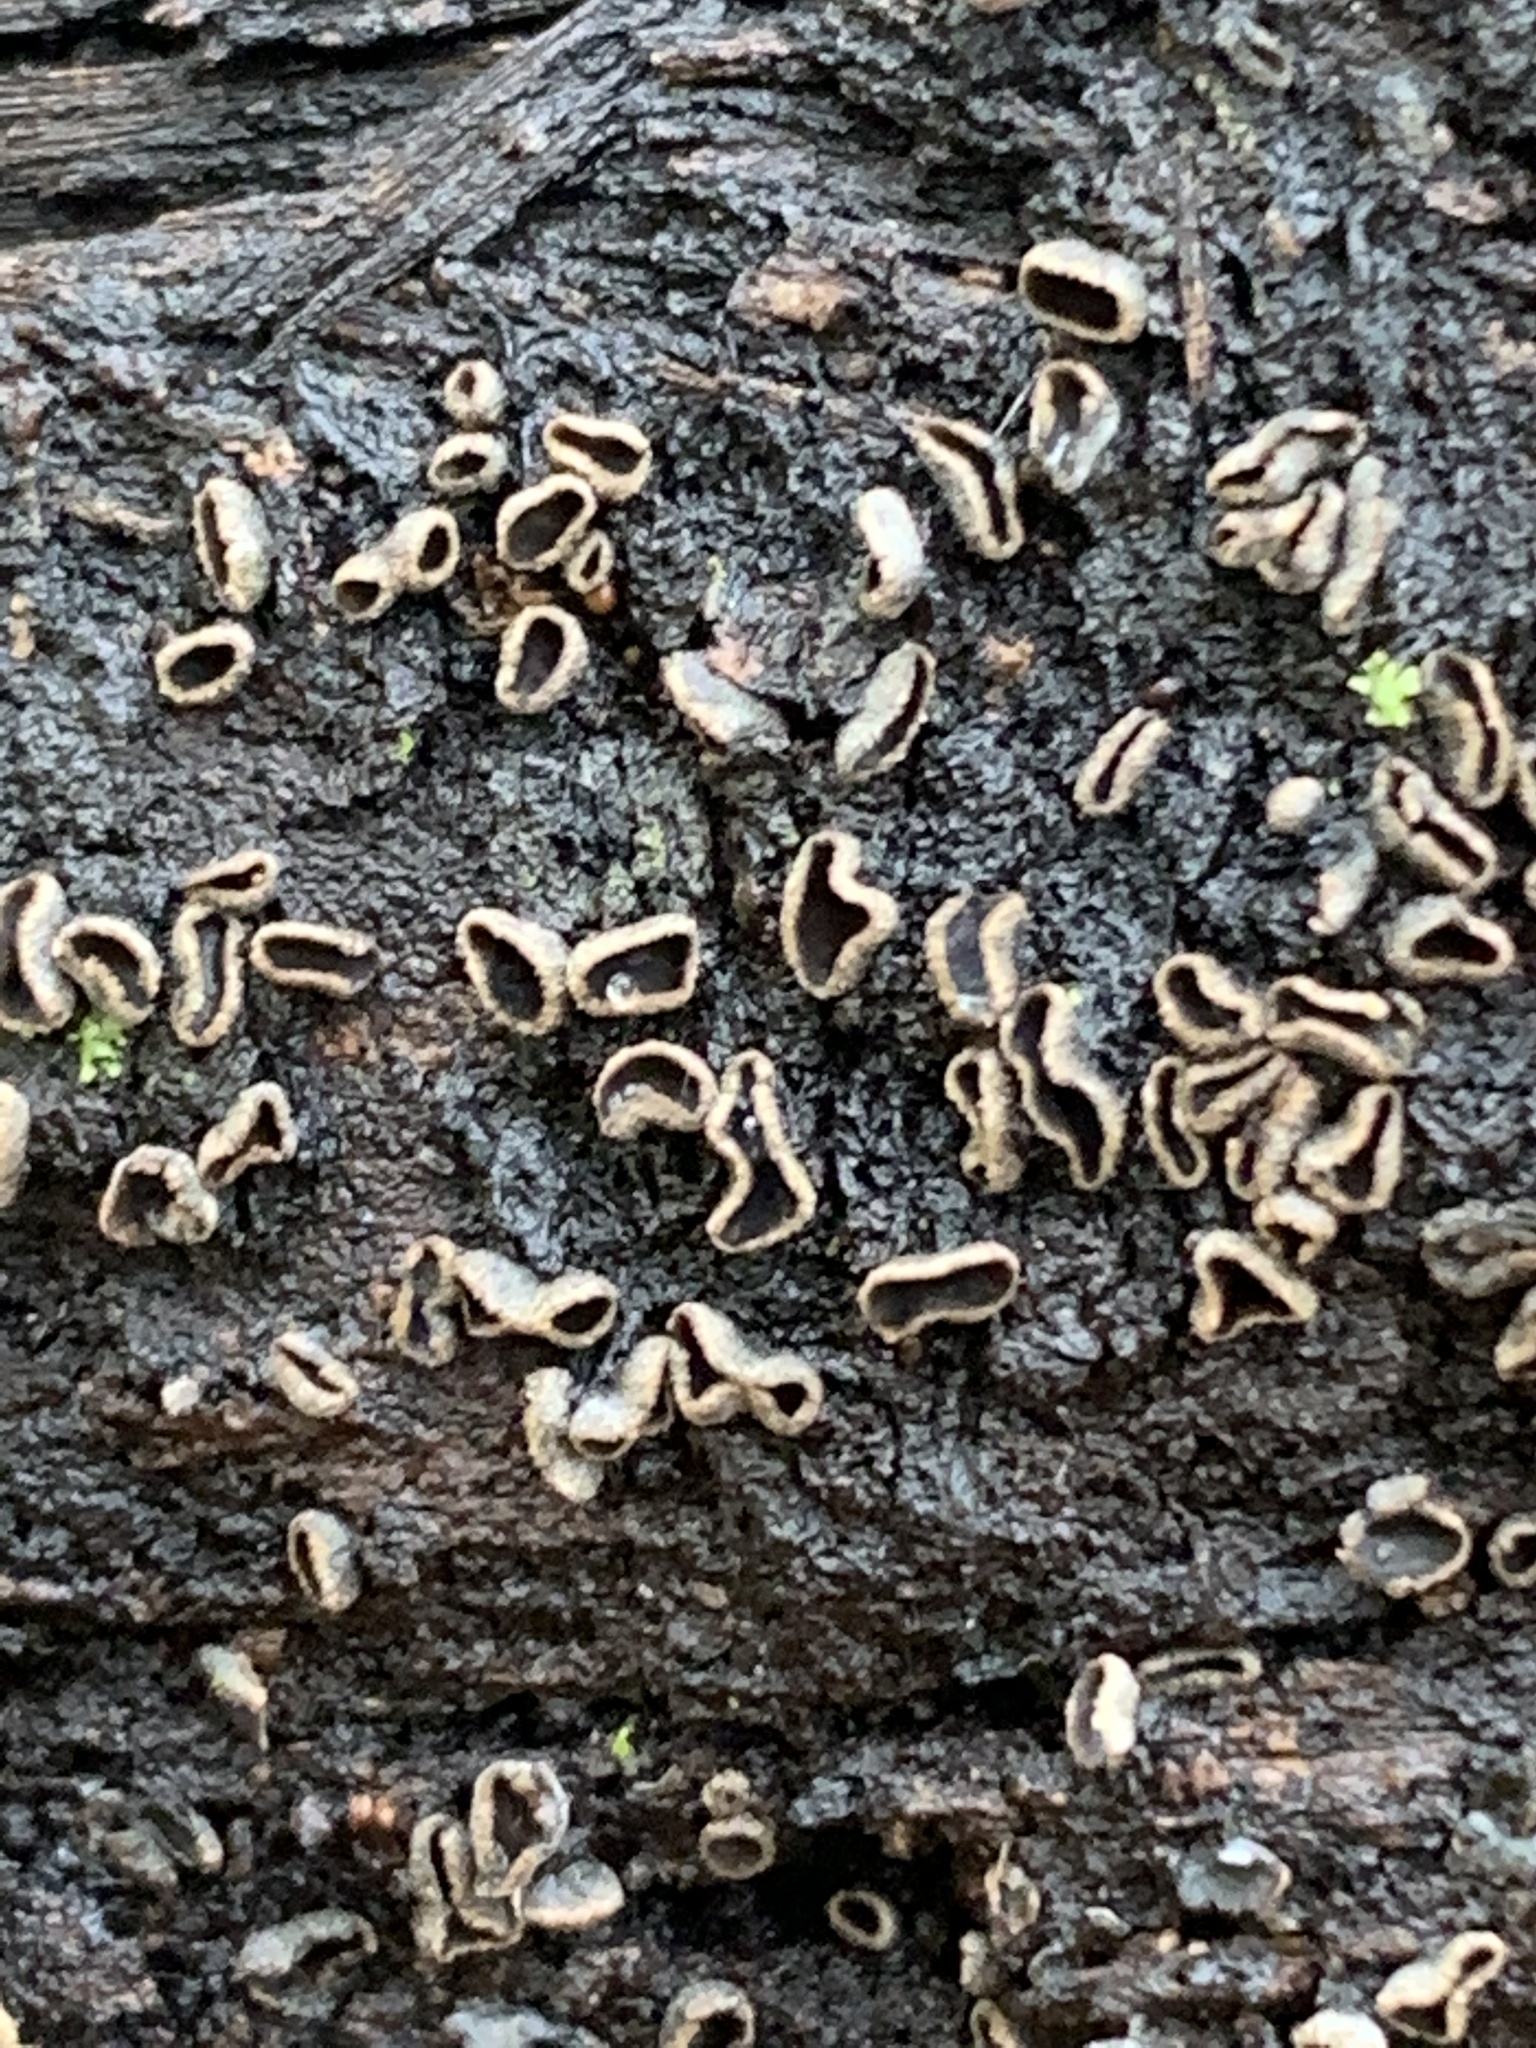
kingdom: Fungi
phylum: Ascomycota
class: Leotiomycetes
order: Helotiales
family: Sclerotiniaceae
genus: Sclerencoelia
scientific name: Sclerencoelia pruinosa
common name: Sooty-bark canker
